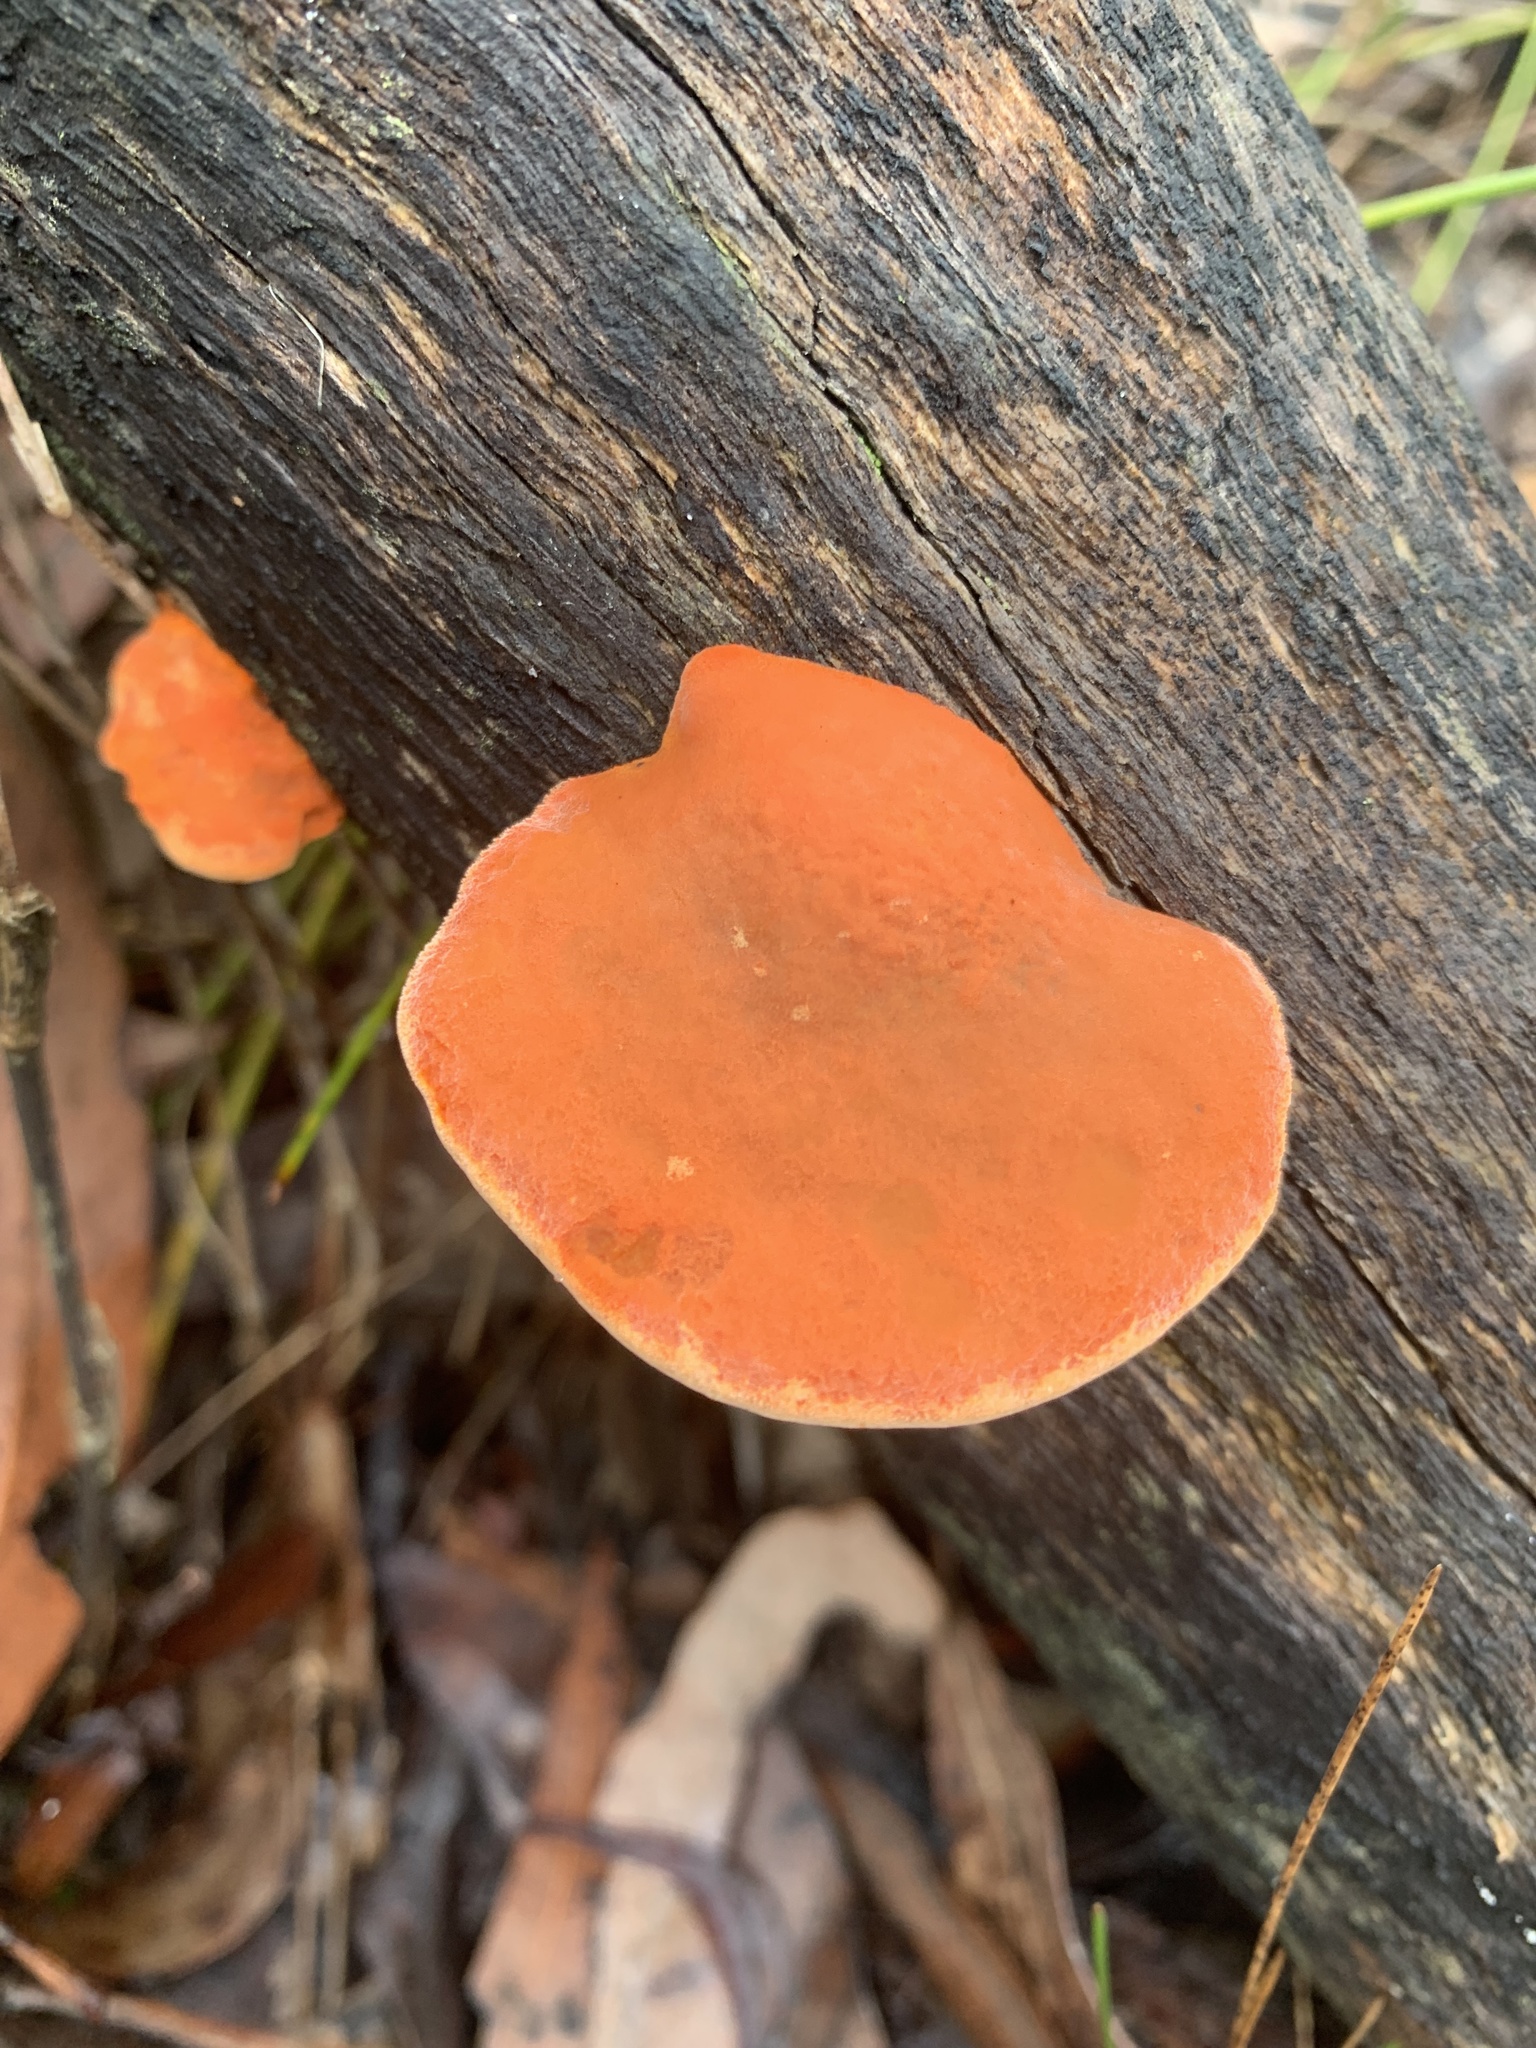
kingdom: Fungi
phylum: Basidiomycota
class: Agaricomycetes
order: Polyporales
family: Polyporaceae
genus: Trametes
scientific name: Trametes coccinea
